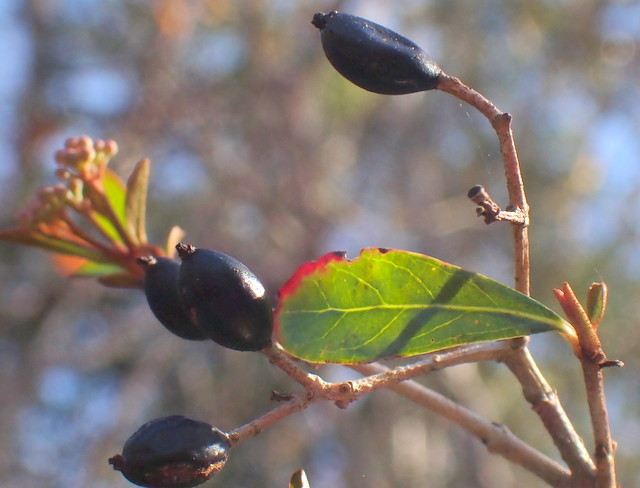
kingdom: Plantae
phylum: Tracheophyta
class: Magnoliopsida
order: Dipsacales
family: Viburnaceae
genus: Viburnum
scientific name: Viburnum obovatum
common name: Walter's viburnum
